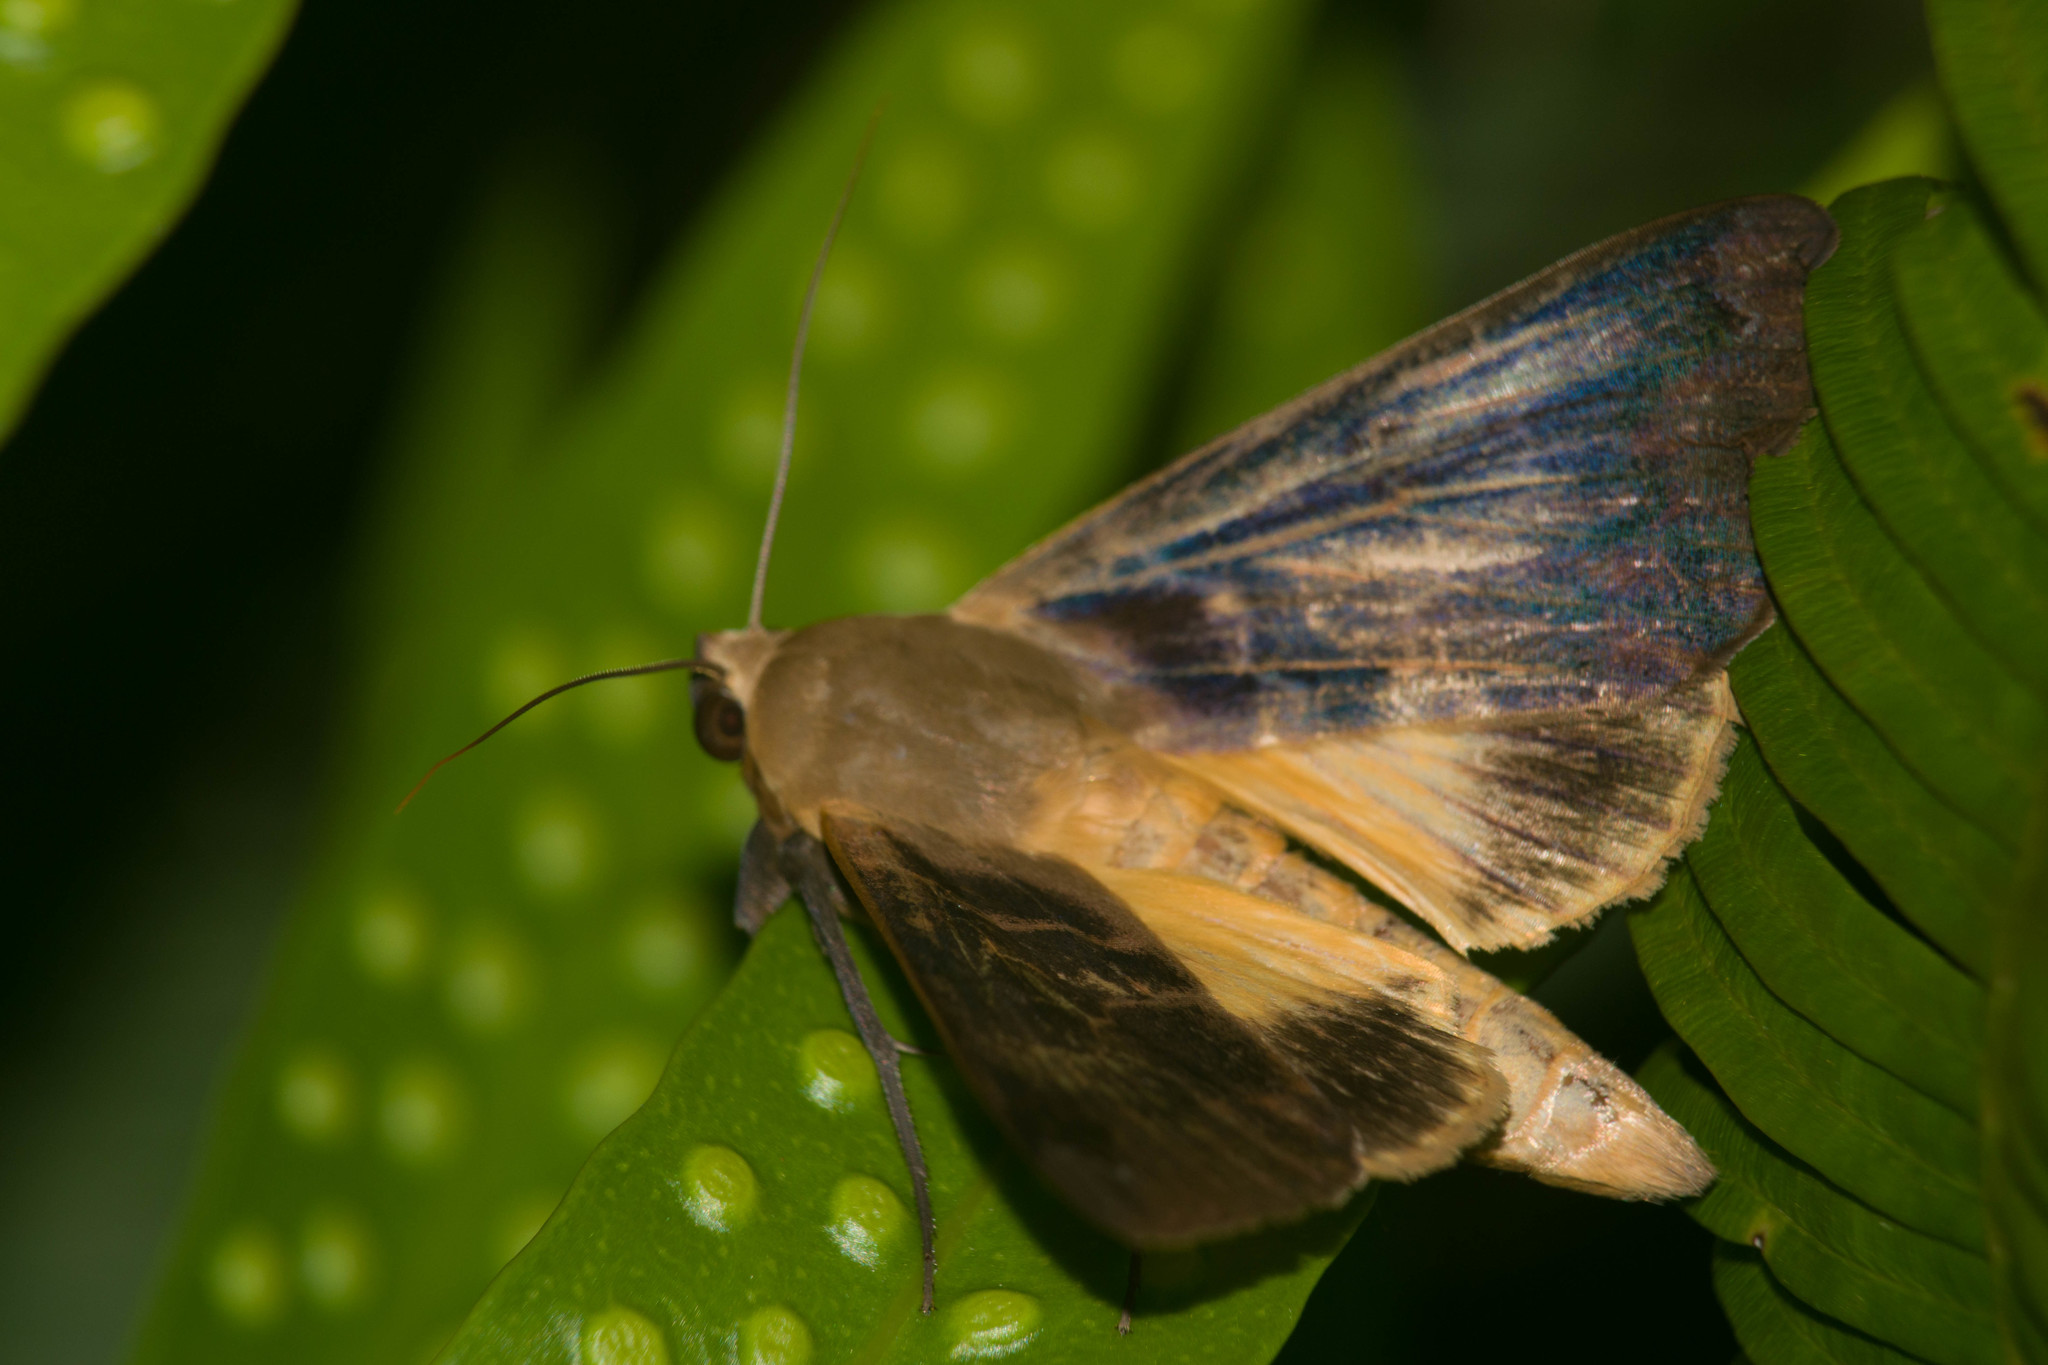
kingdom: Animalia
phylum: Arthropoda
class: Insecta
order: Lepidoptera
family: Erebidae
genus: Ophiusa
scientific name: Ophiusa disjungens
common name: Moth
